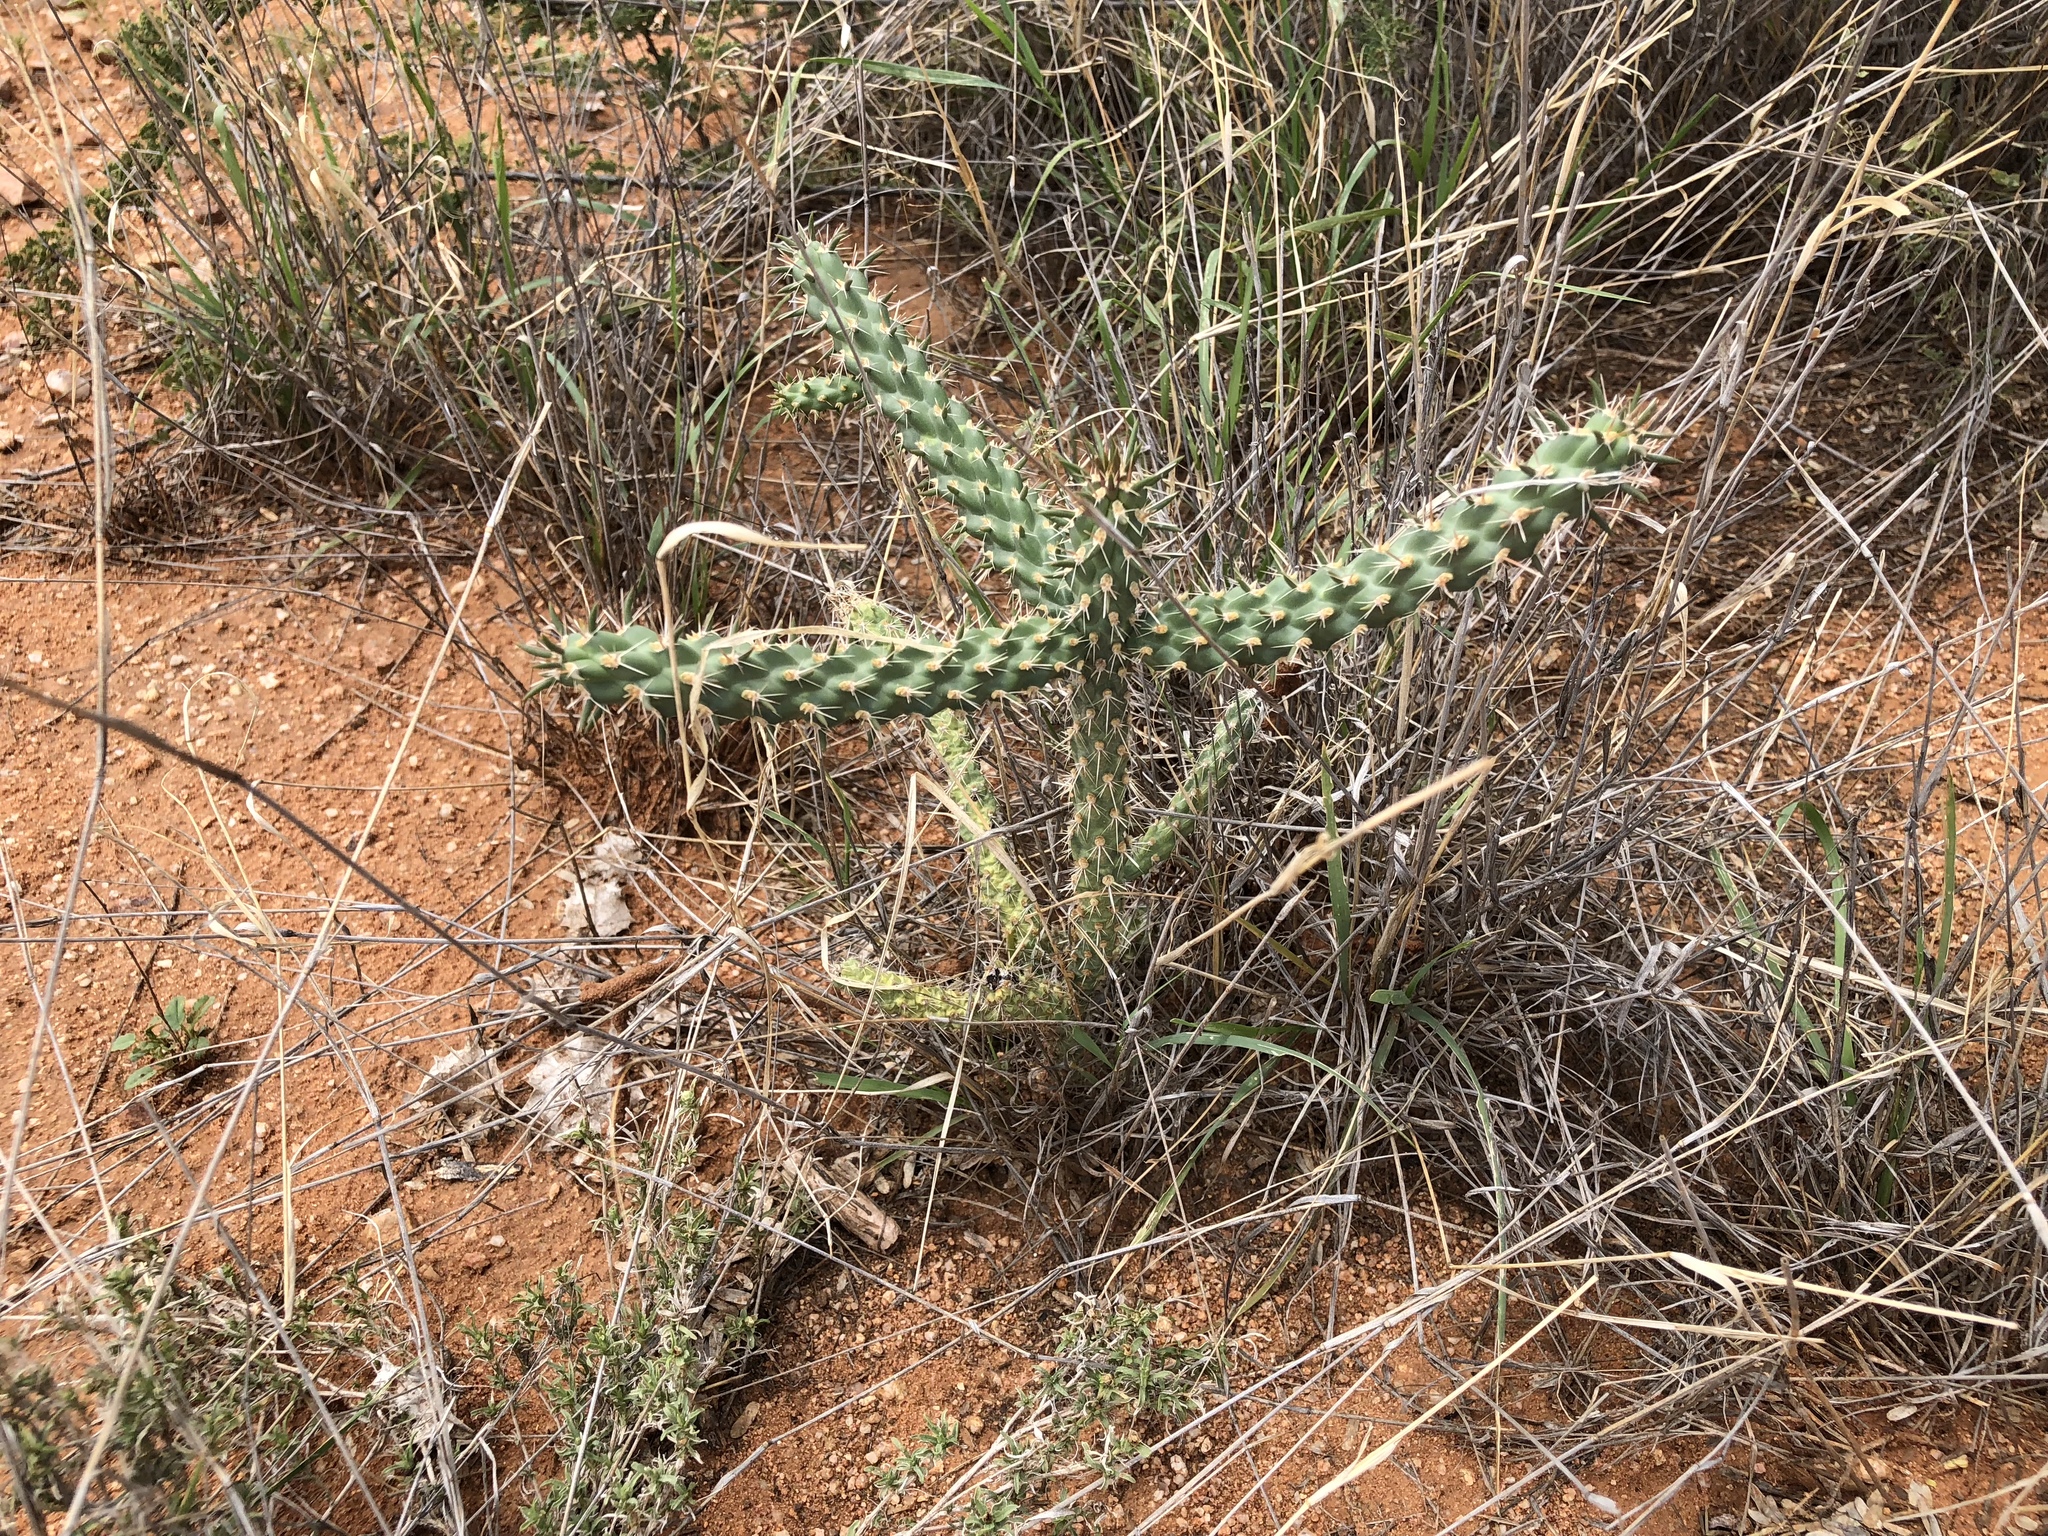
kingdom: Plantae
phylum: Tracheophyta
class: Magnoliopsida
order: Caryophyllales
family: Cactaceae
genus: Cylindropuntia
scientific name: Cylindropuntia imbricata
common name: Candelabrum cactus
